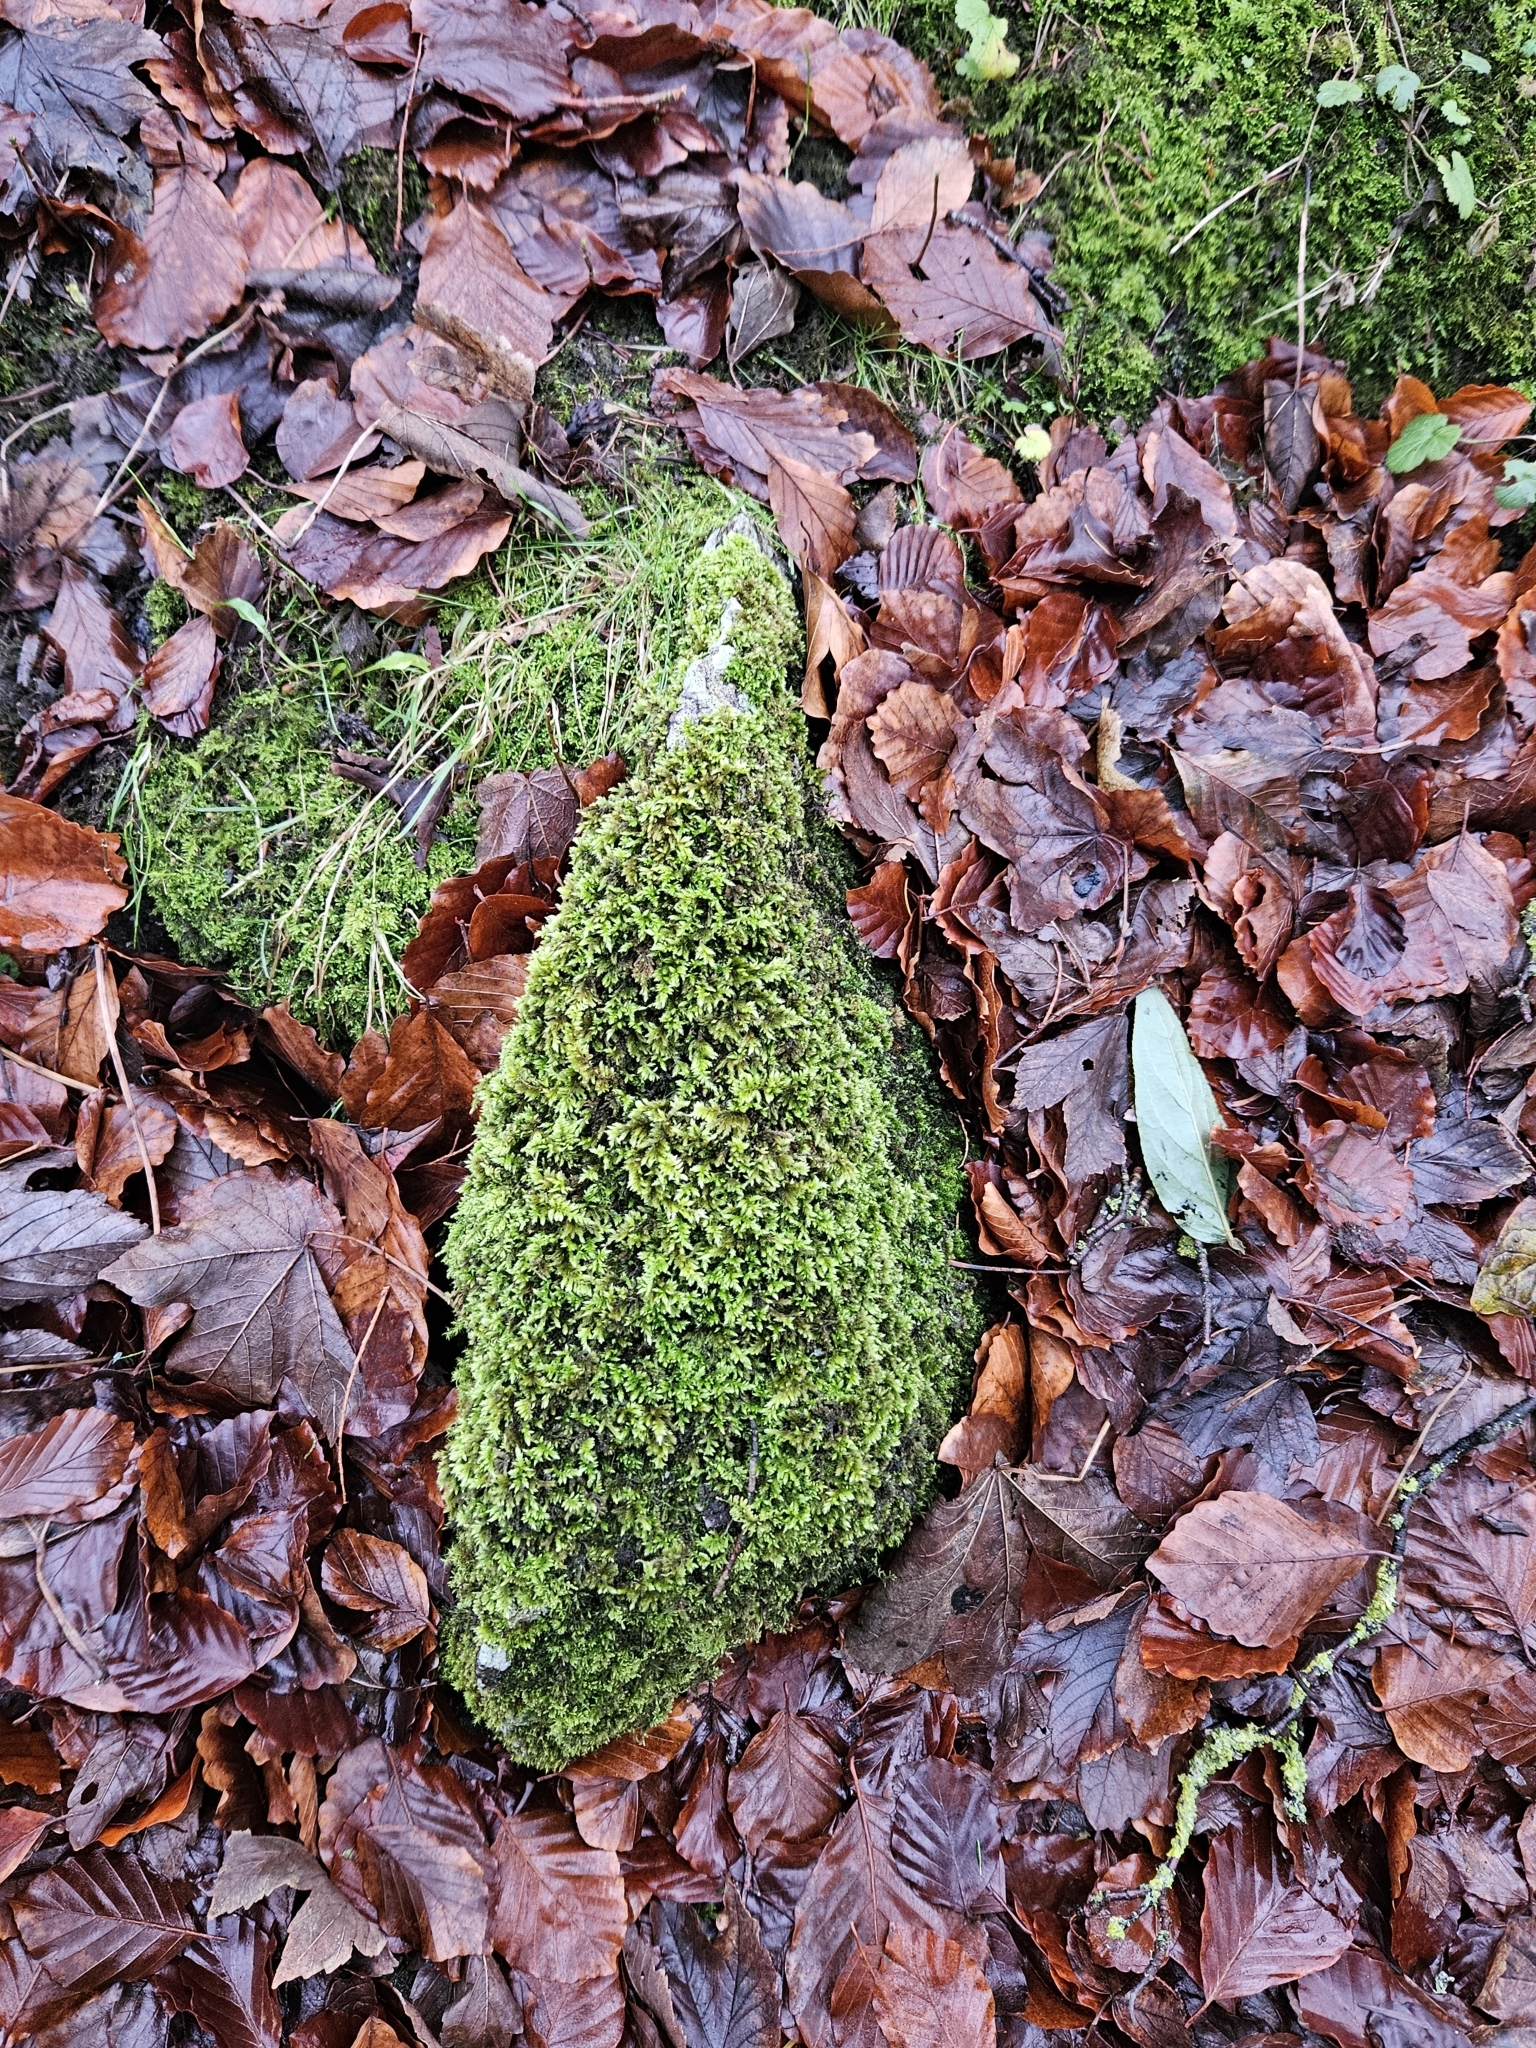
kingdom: Plantae
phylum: Bryophyta
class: Bryopsida
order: Hypnales
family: Myuriaceae
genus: Ctenidium
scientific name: Ctenidium molluscum
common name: Chalk comb-moss
